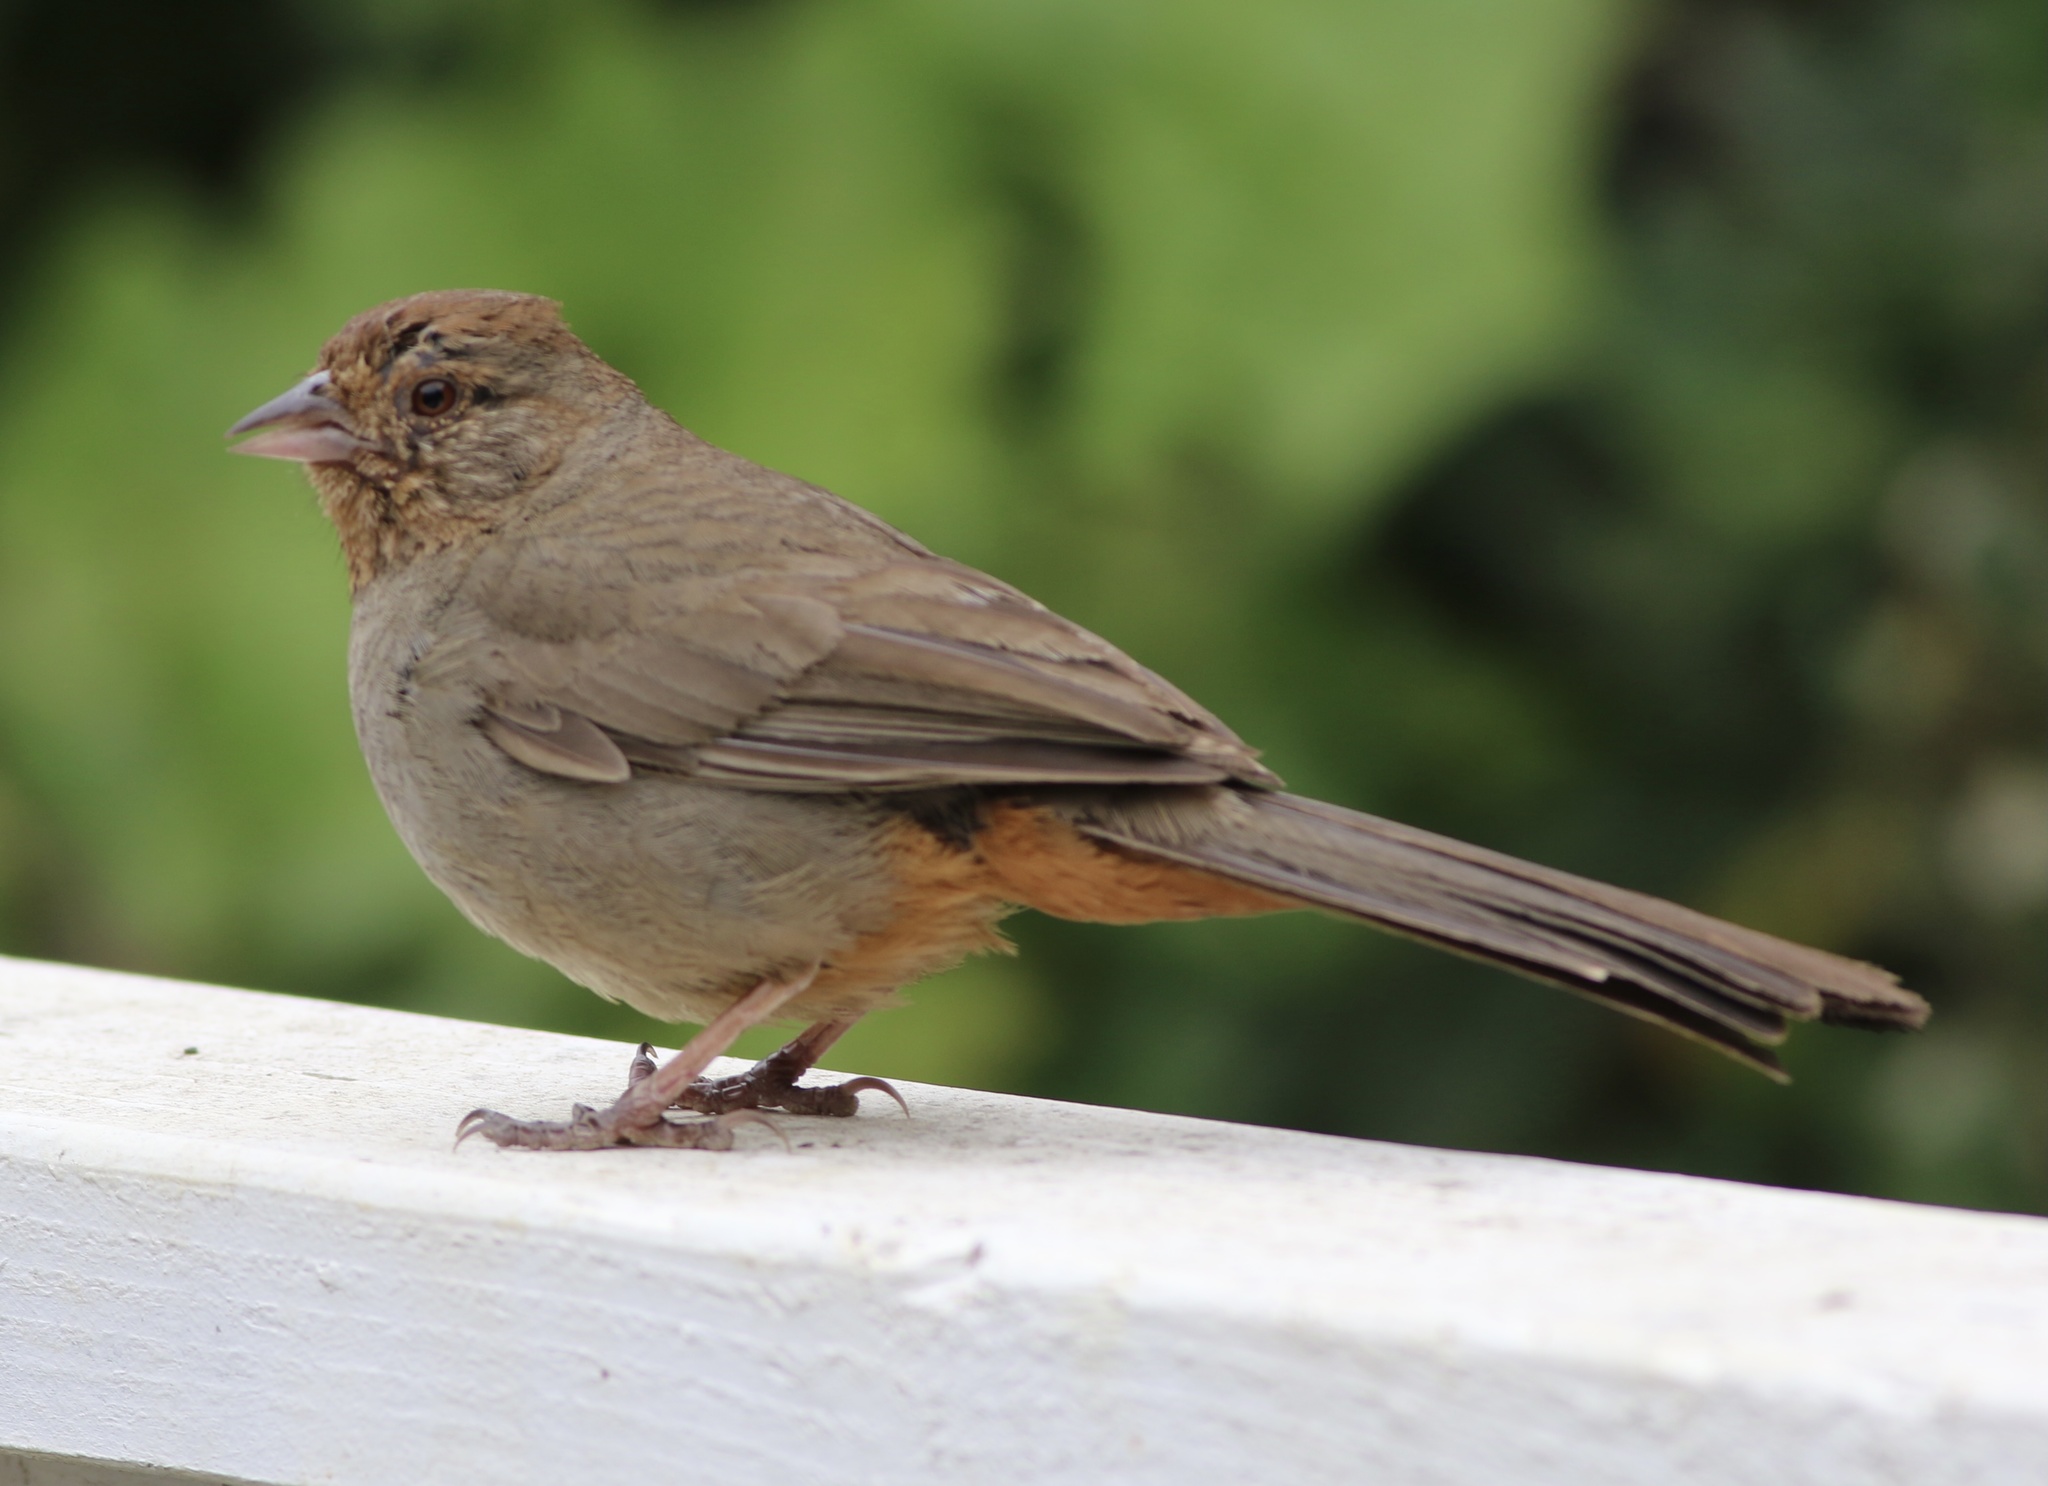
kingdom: Animalia
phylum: Chordata
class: Aves
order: Passeriformes
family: Passerellidae
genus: Melozone
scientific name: Melozone crissalis
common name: California towhee
